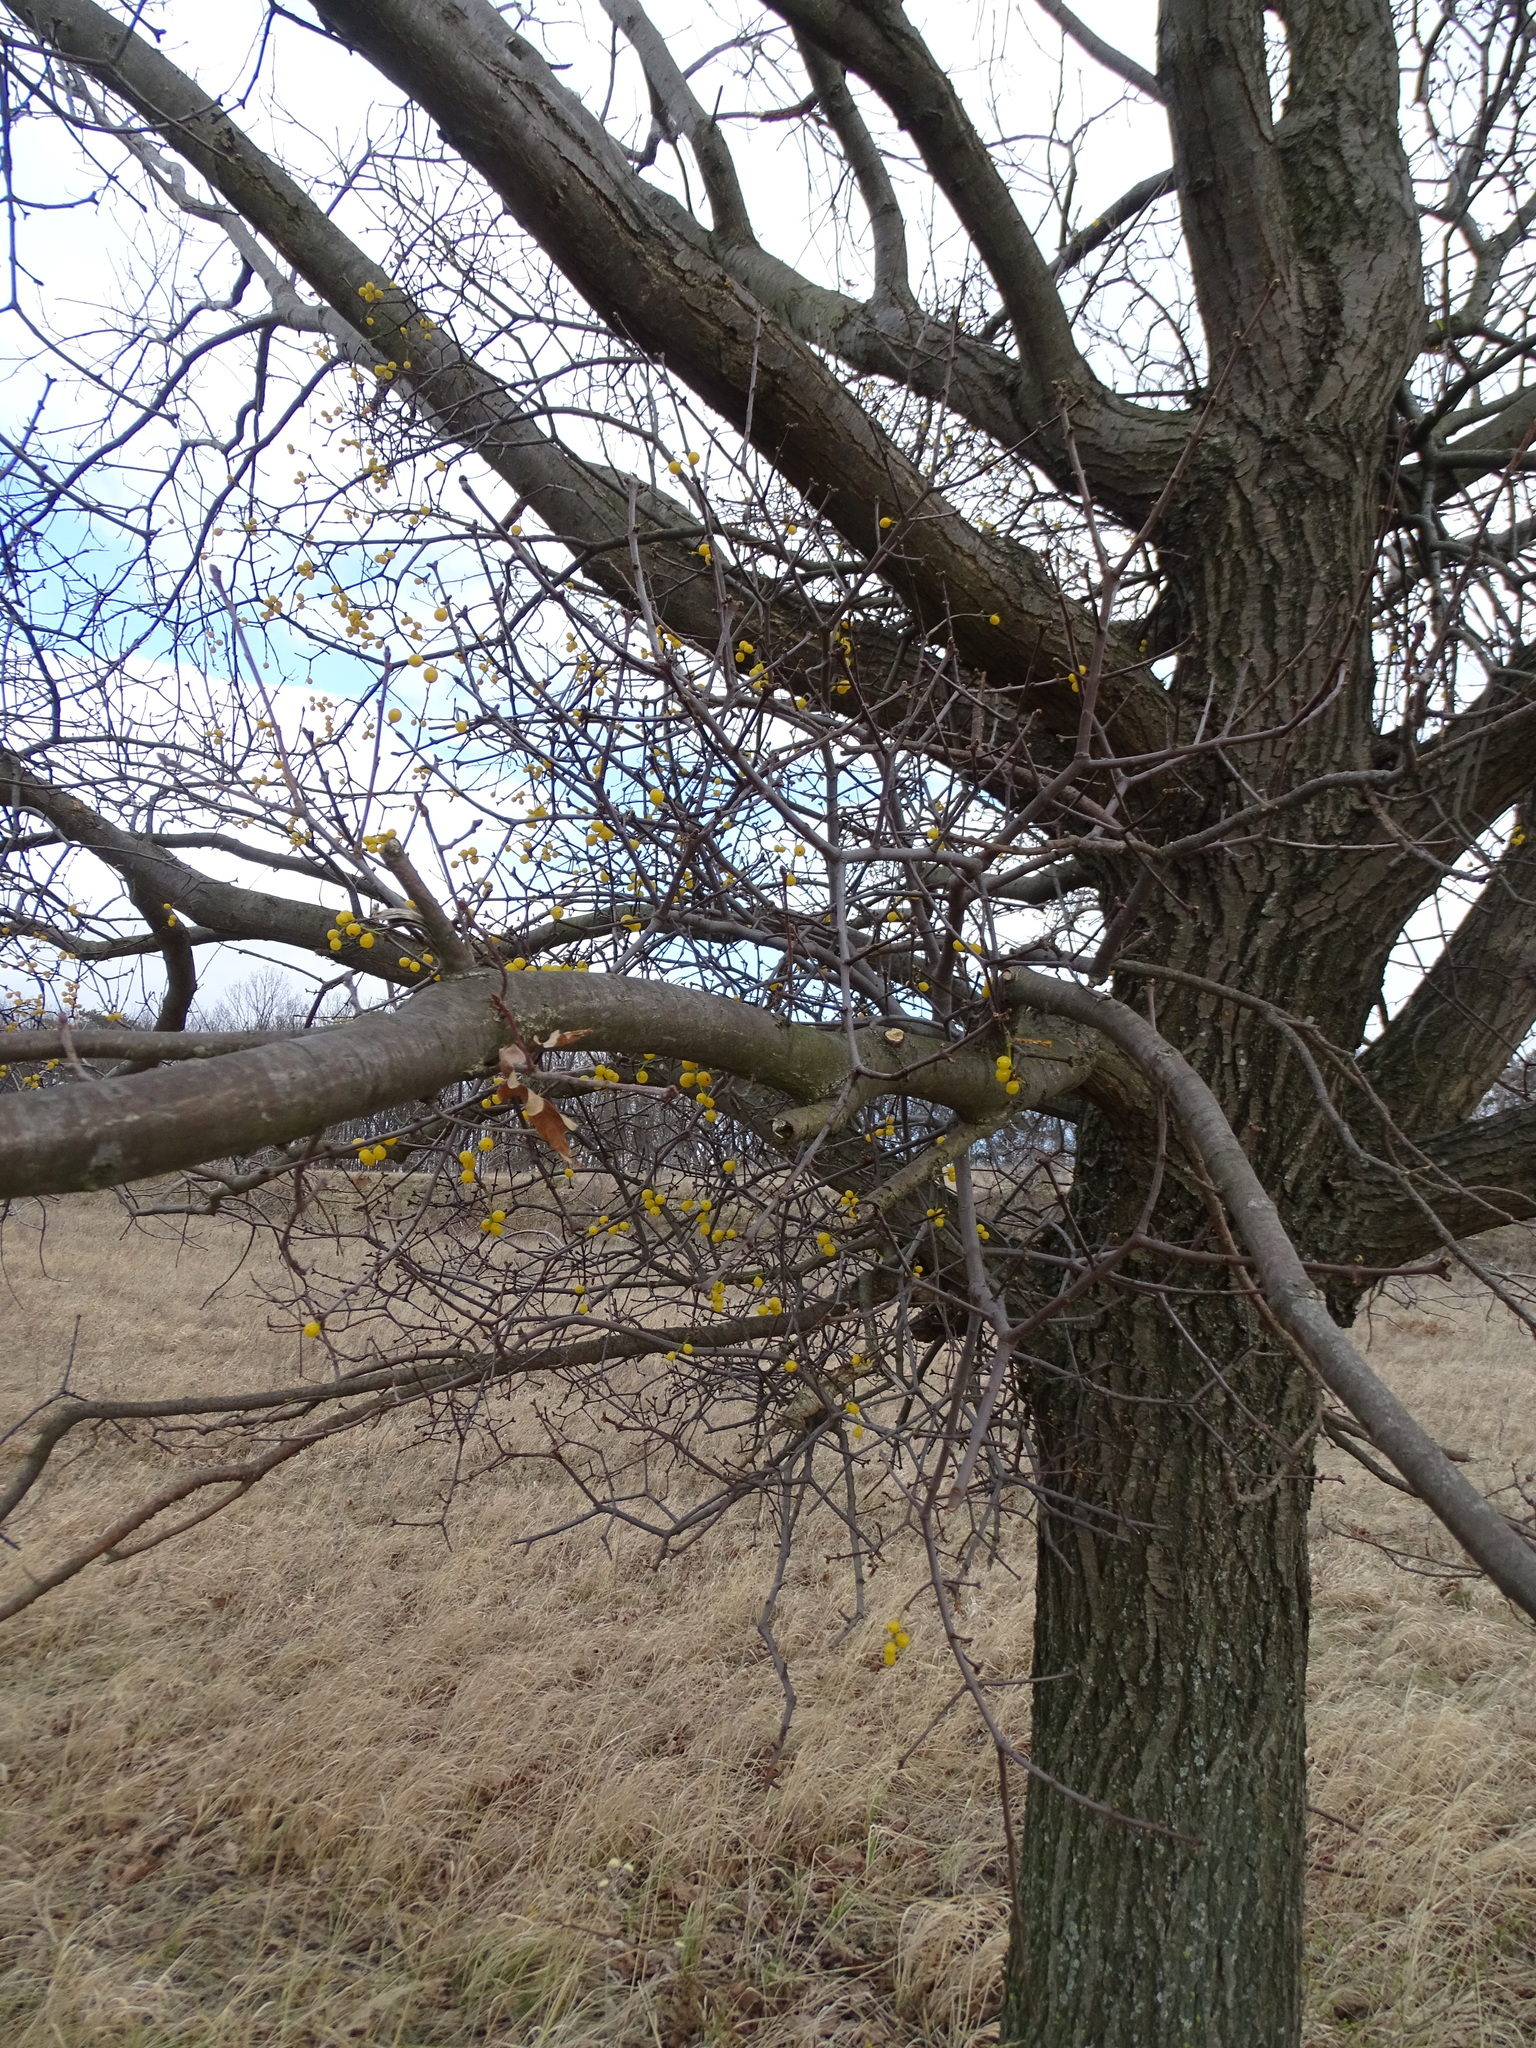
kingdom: Plantae
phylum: Tracheophyta
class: Magnoliopsida
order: Santalales
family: Loranthaceae
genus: Loranthus
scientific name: Loranthus europaeus
